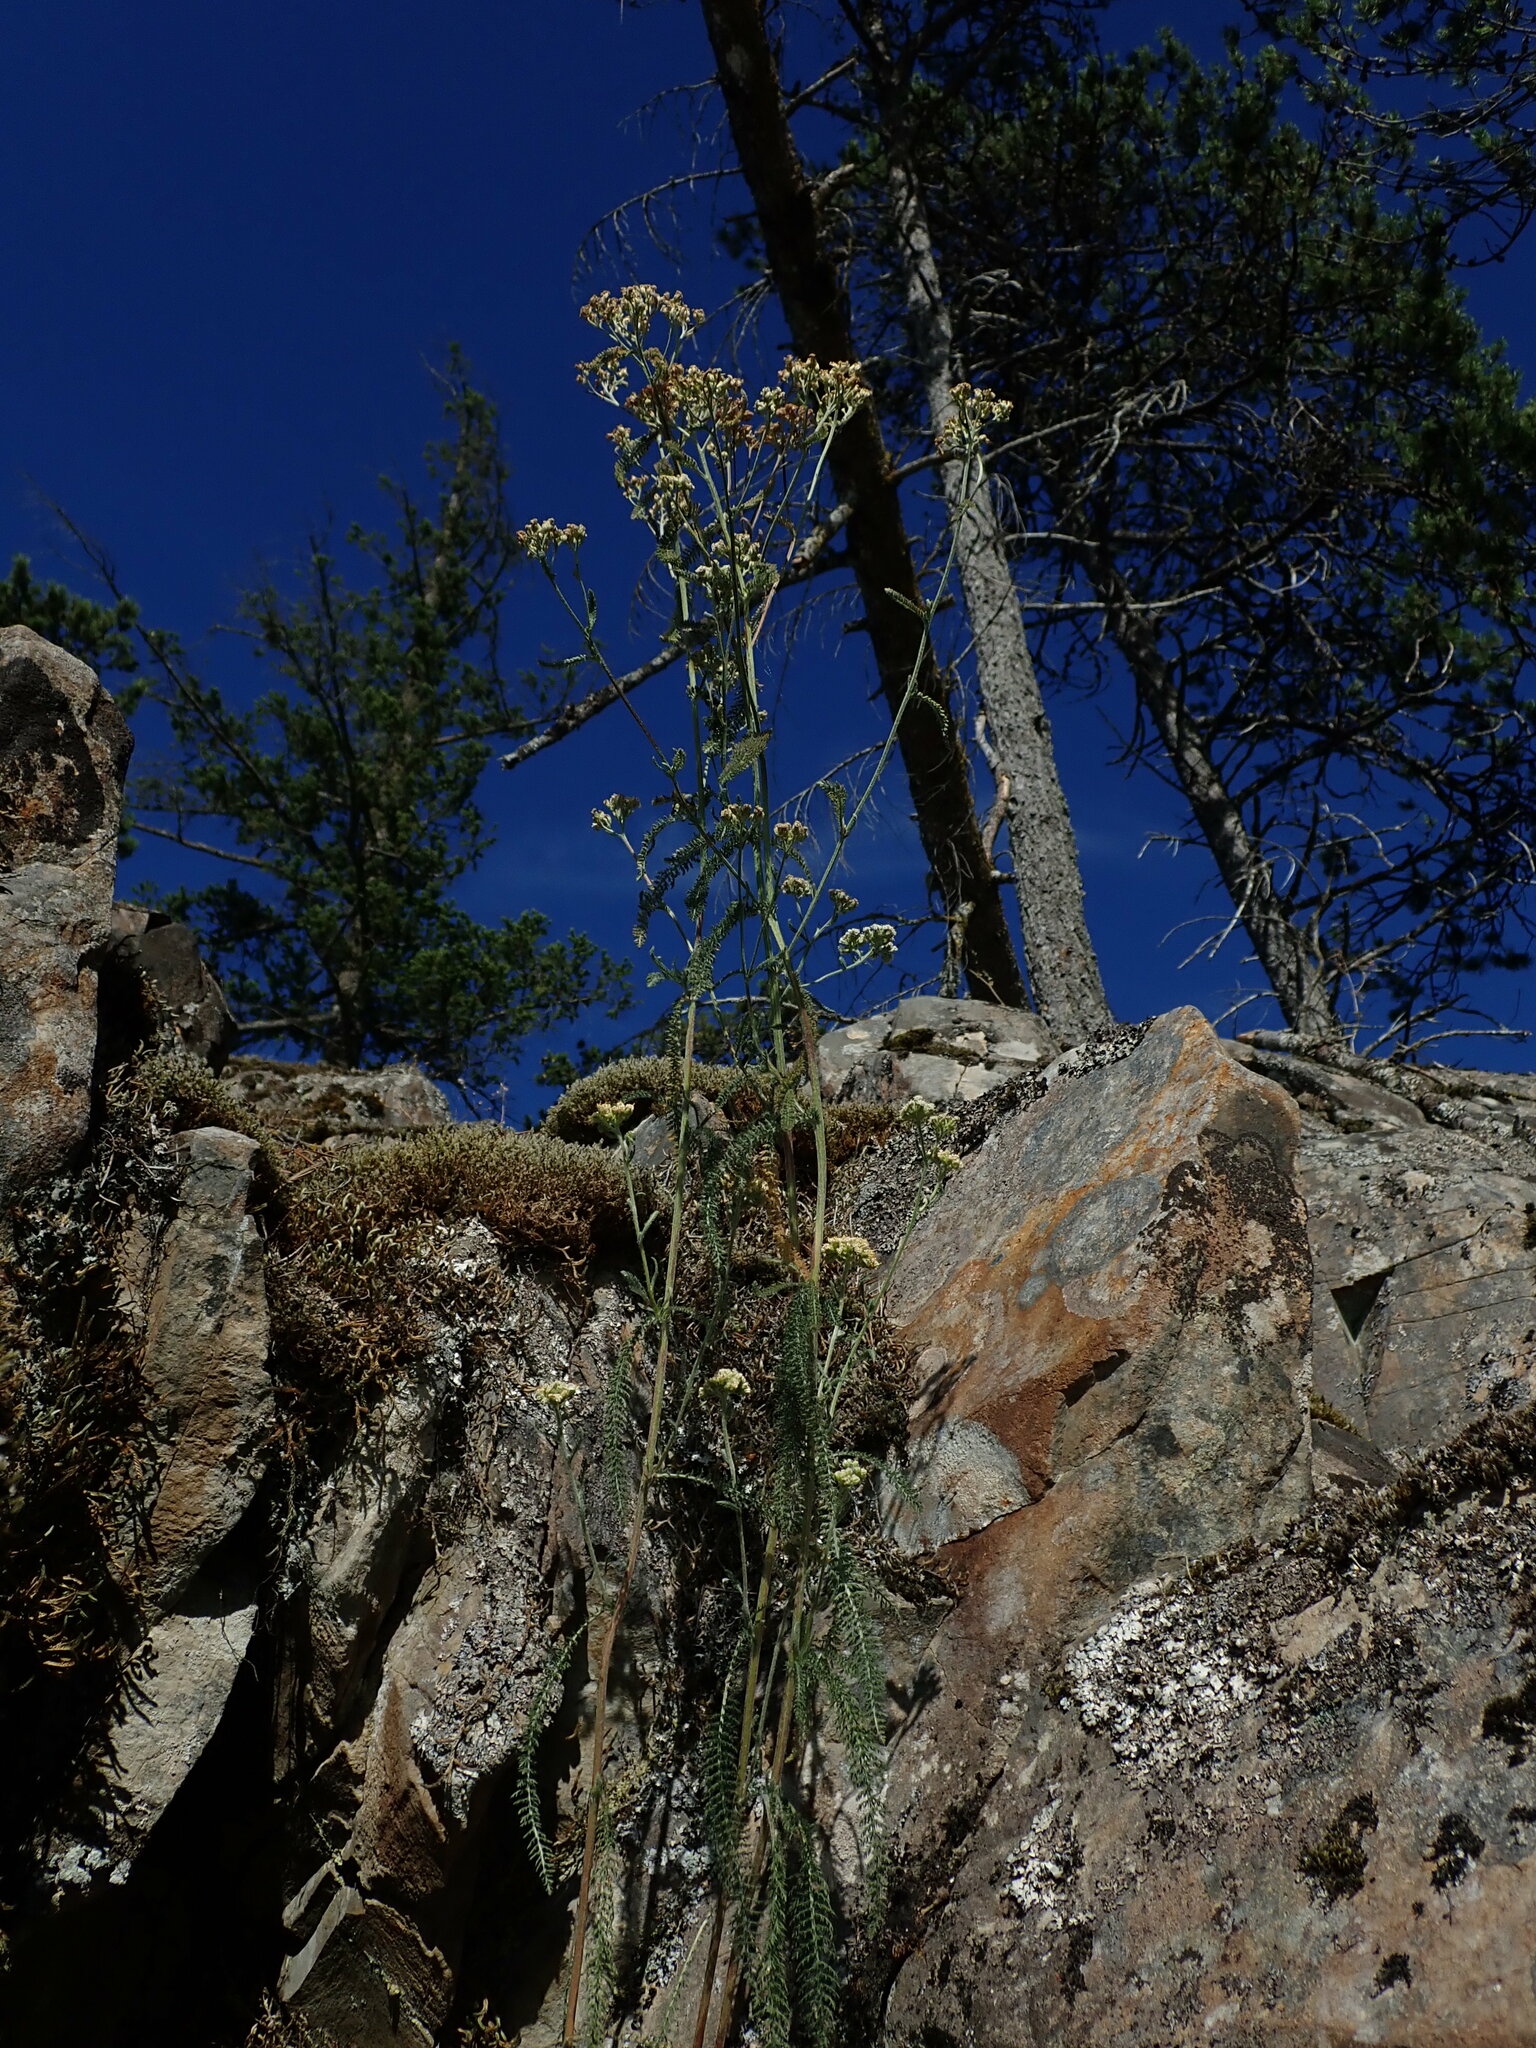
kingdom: Plantae
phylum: Tracheophyta
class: Magnoliopsida
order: Asterales
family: Asteraceae
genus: Achillea
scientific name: Achillea millefolium
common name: Yarrow
